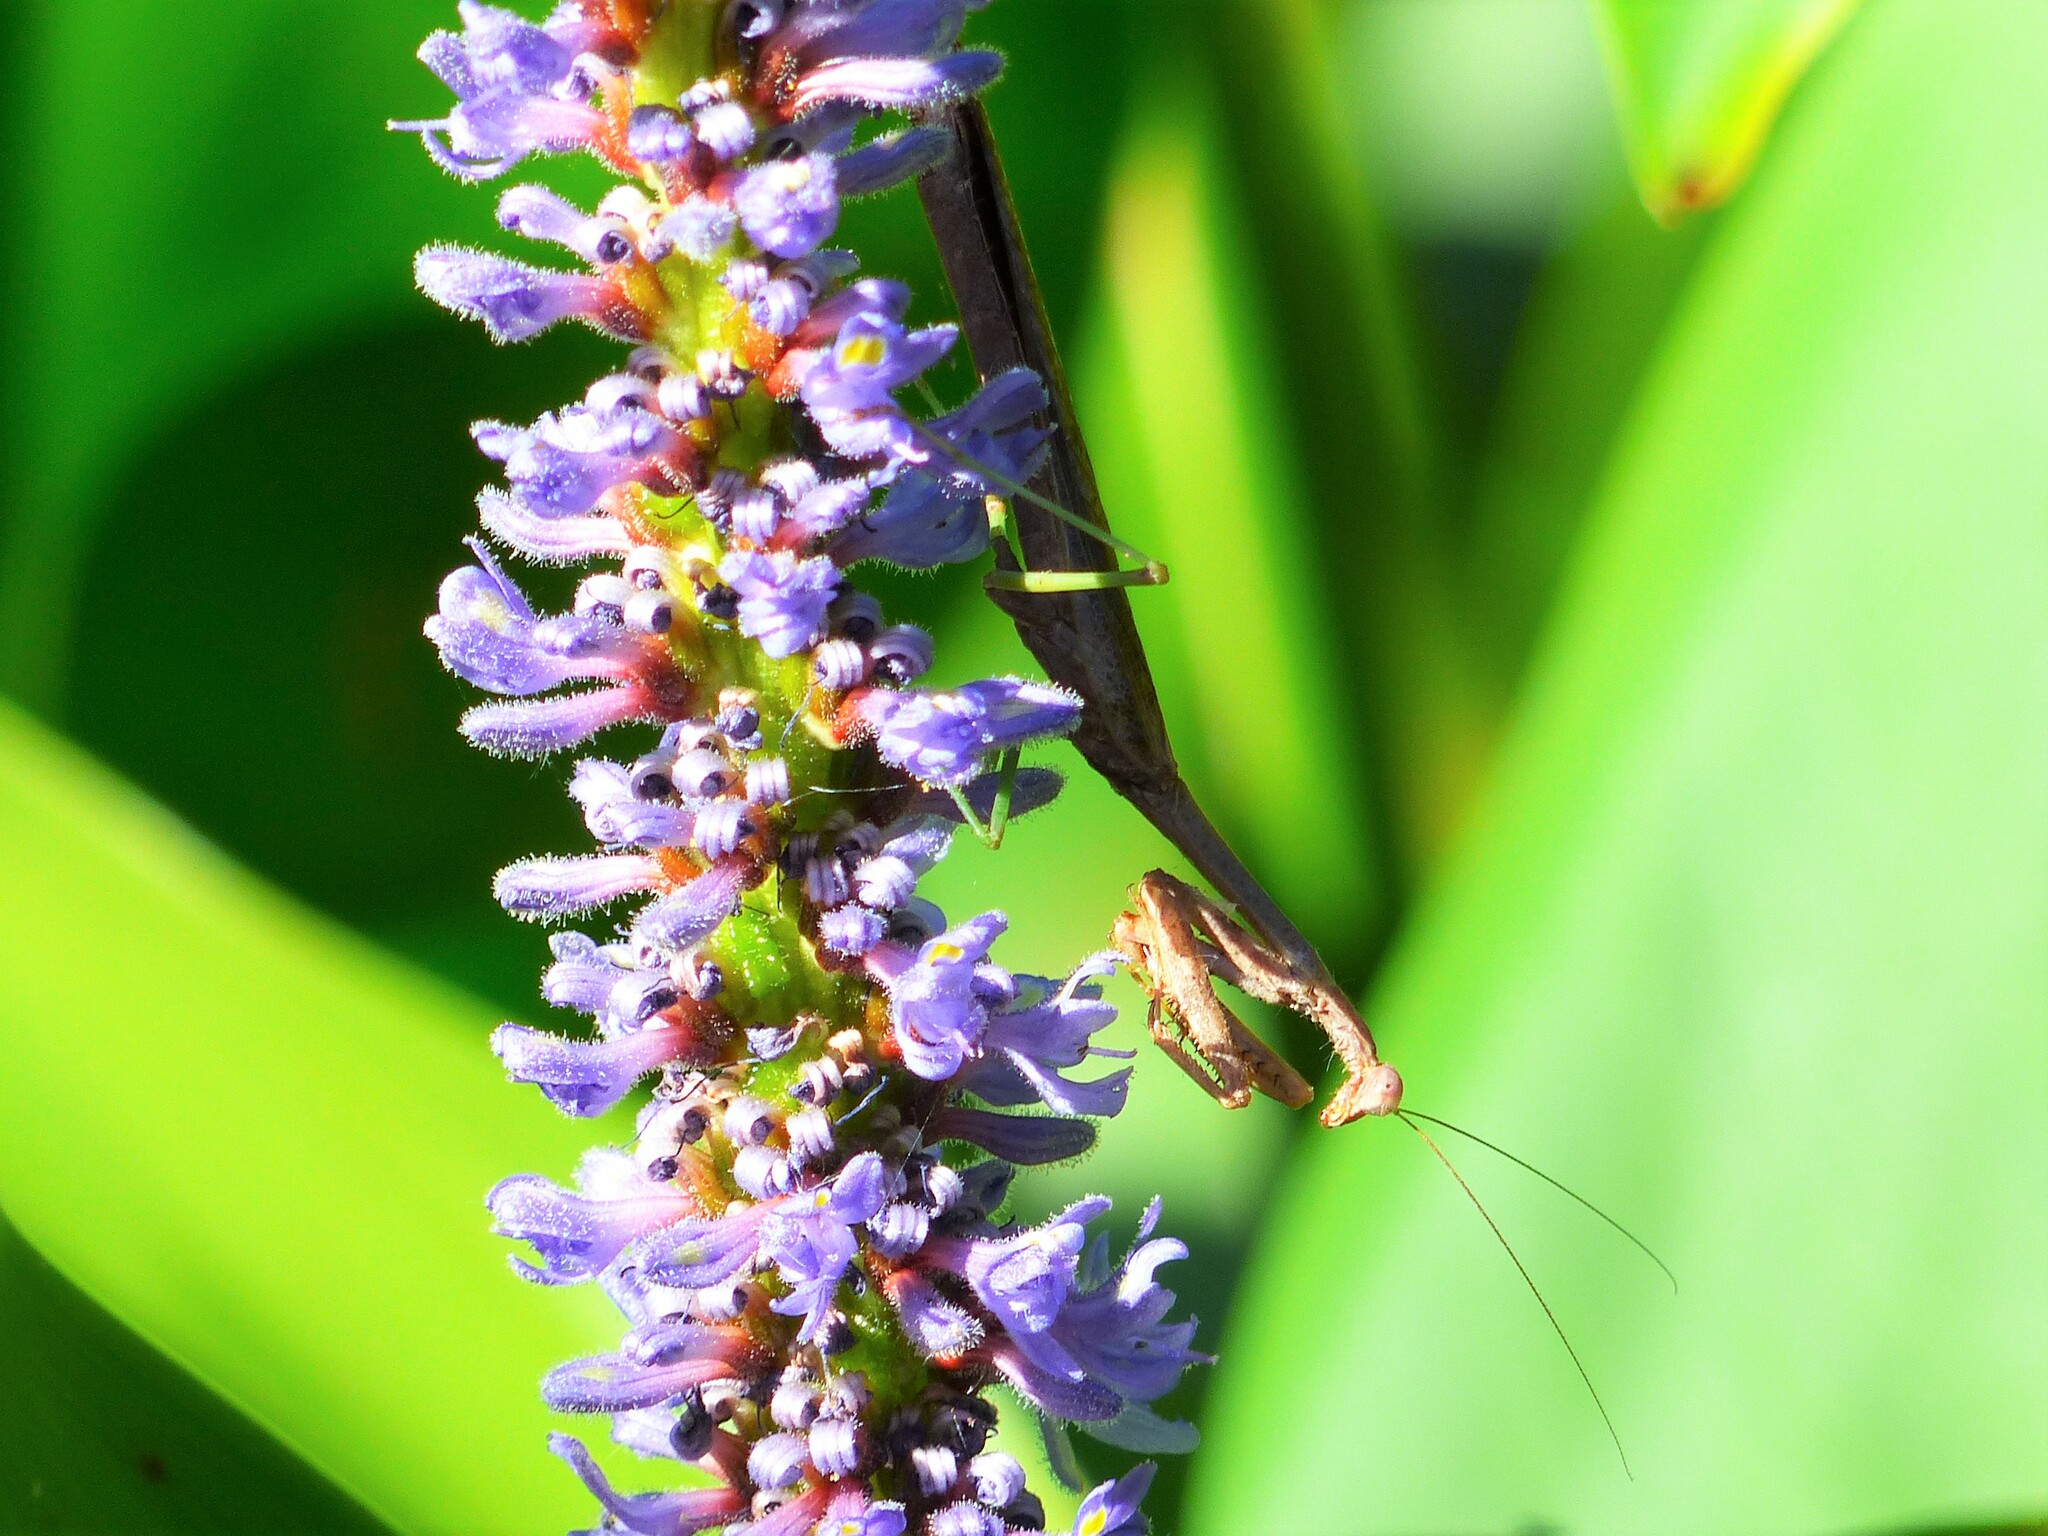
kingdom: Animalia
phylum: Arthropoda
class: Insecta
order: Mantodea
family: Mantidae
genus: Stagmomantis
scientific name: Stagmomantis carolina
